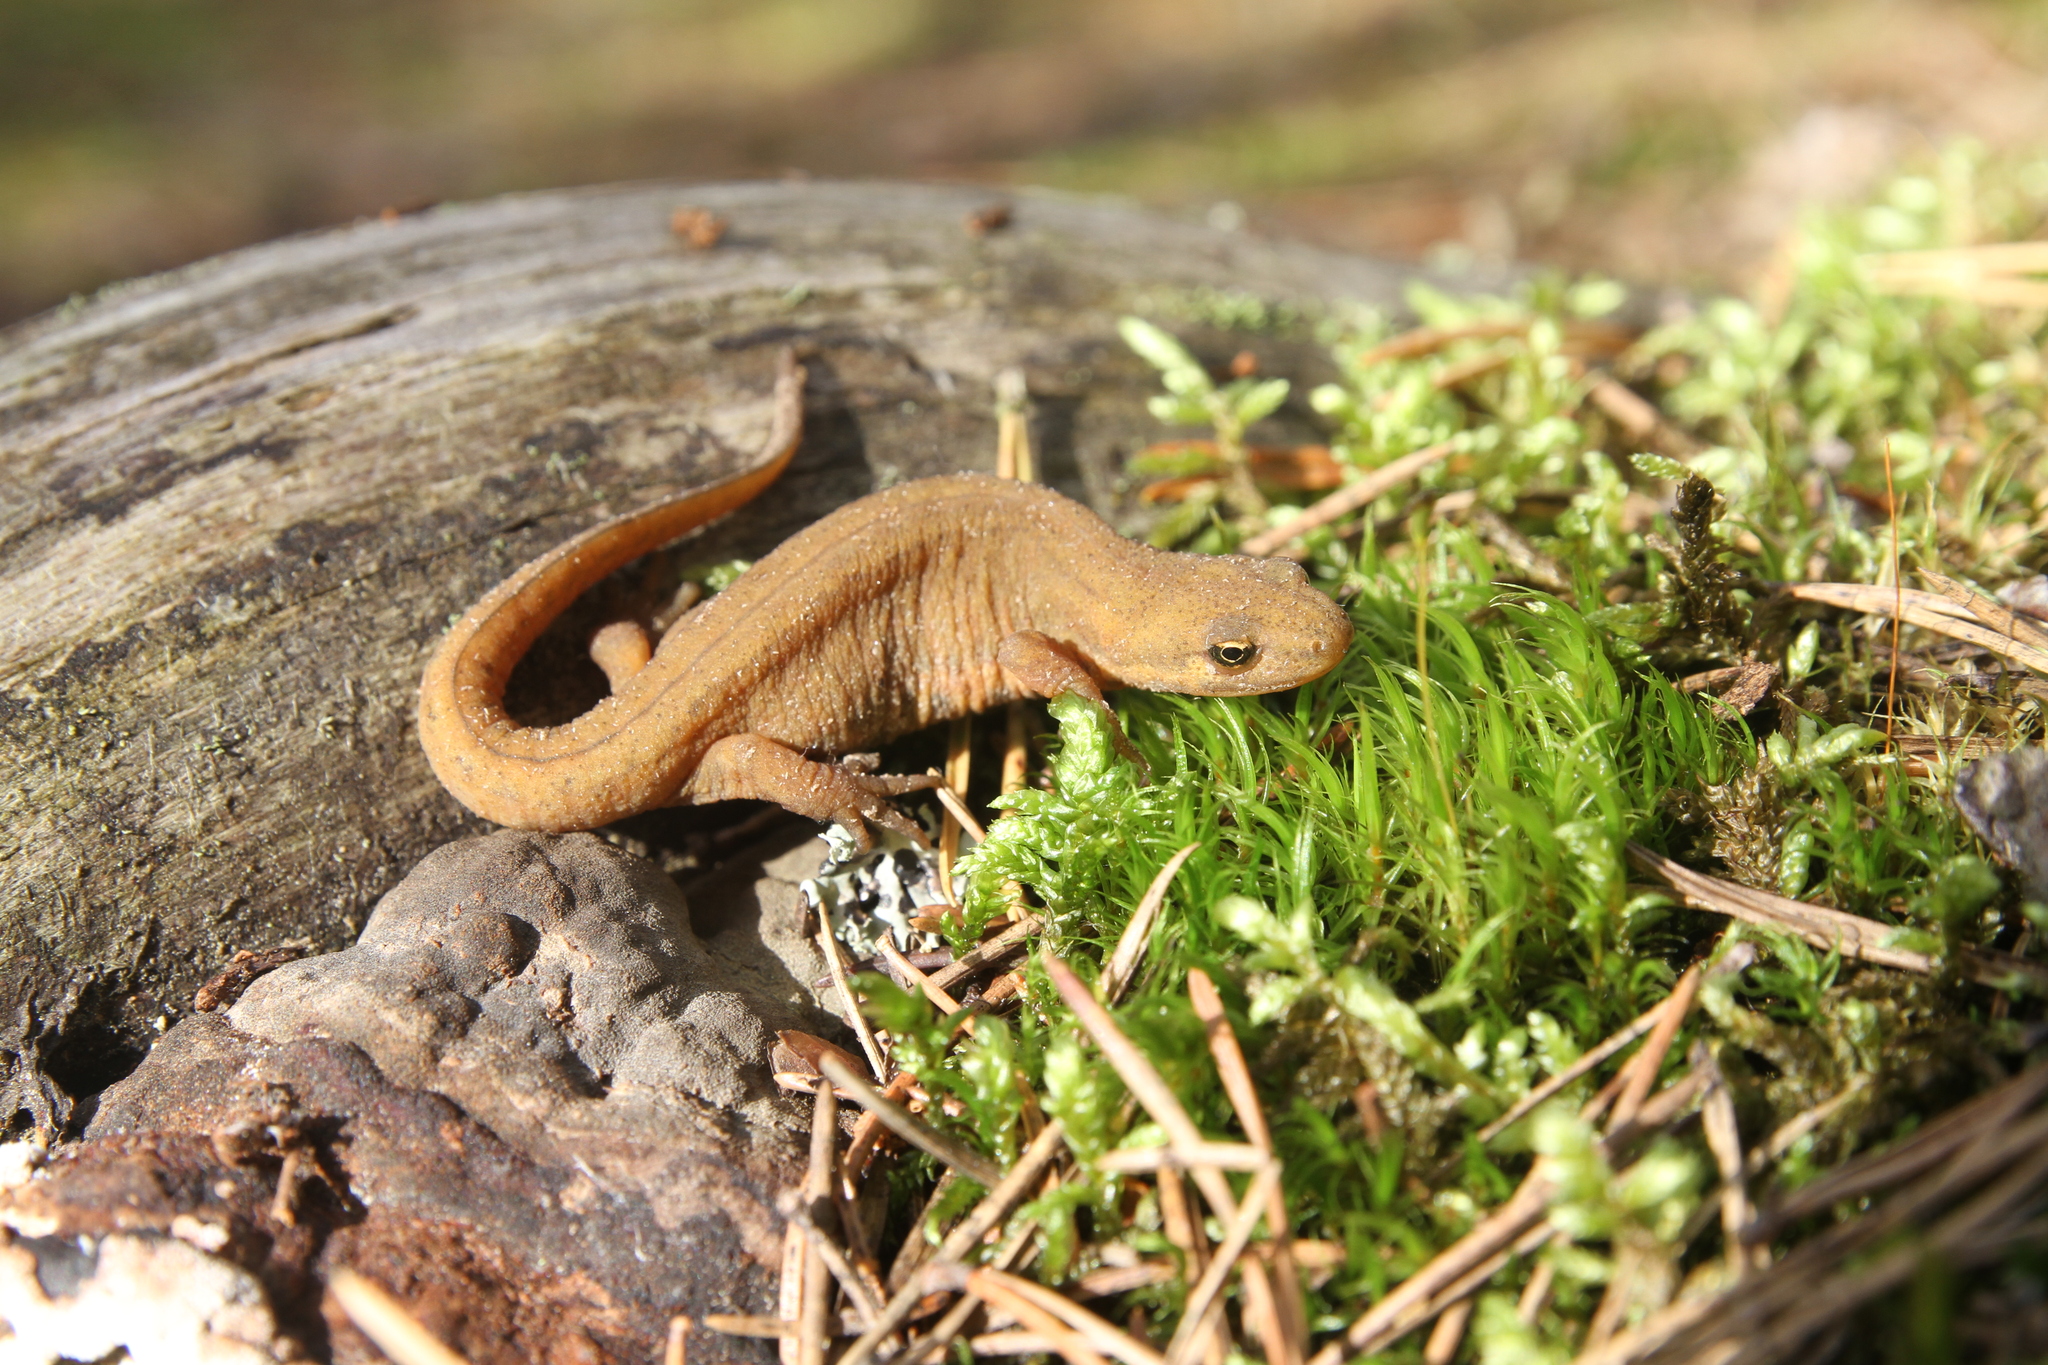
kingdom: Animalia
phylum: Chordata
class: Amphibia
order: Caudata
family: Salamandridae
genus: Lissotriton
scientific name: Lissotriton vulgaris
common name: Smooth newt
